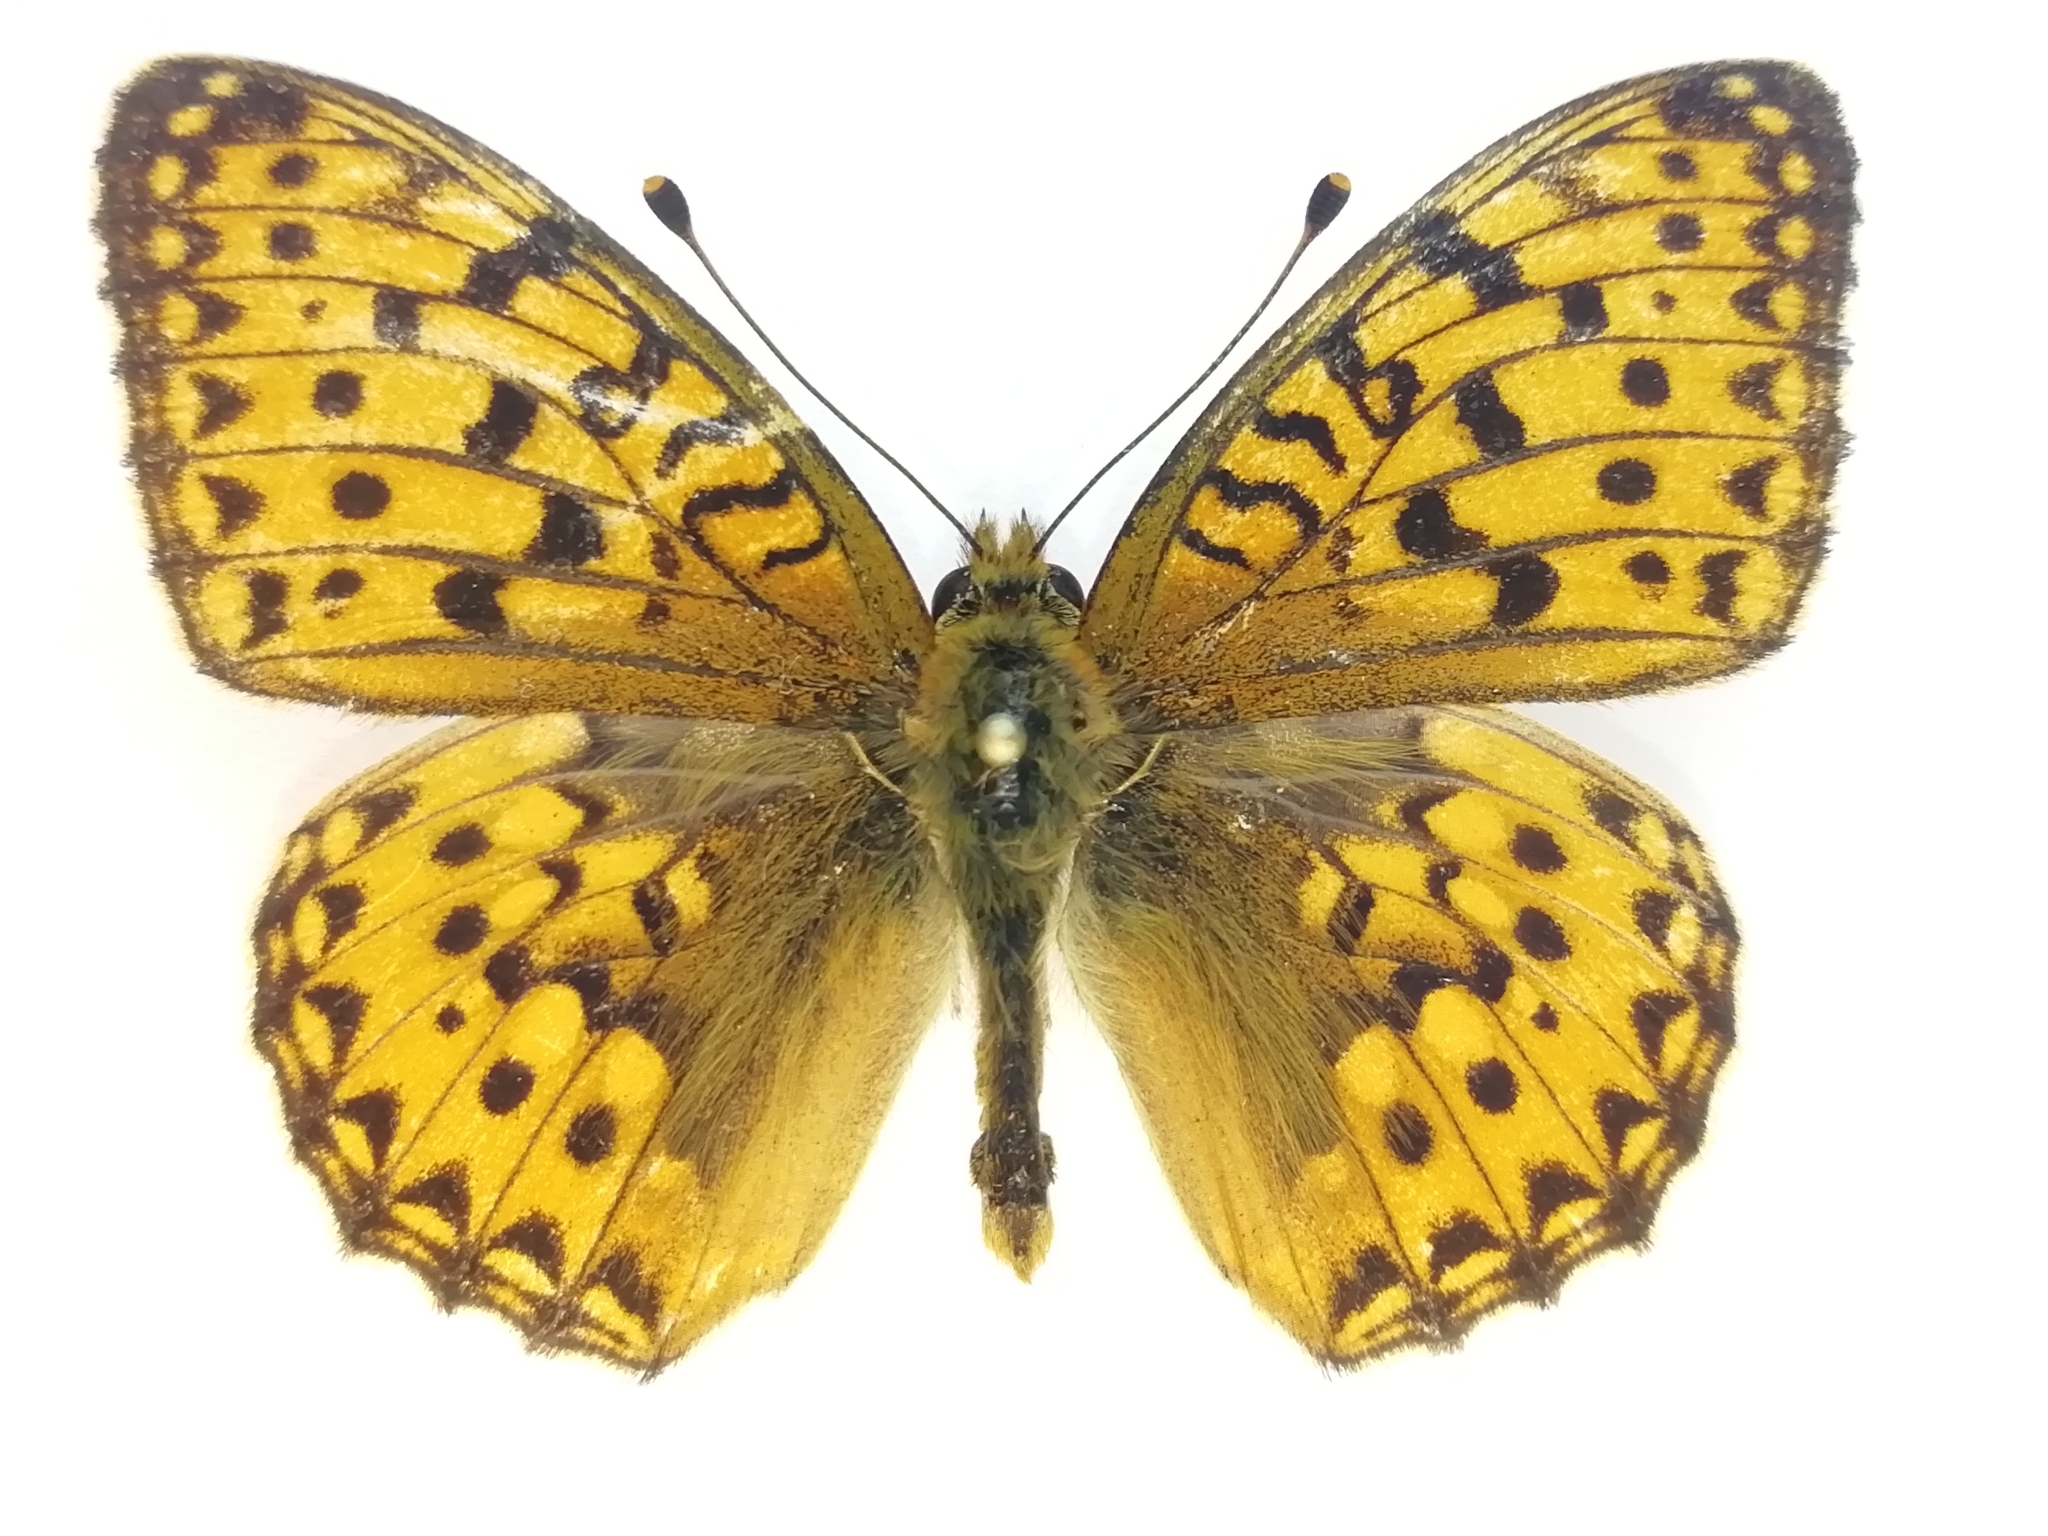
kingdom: Animalia
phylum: Arthropoda
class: Insecta
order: Lepidoptera
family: Nymphalidae
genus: Speyeria
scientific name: Speyeria aglaja
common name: Dark green fritillary
